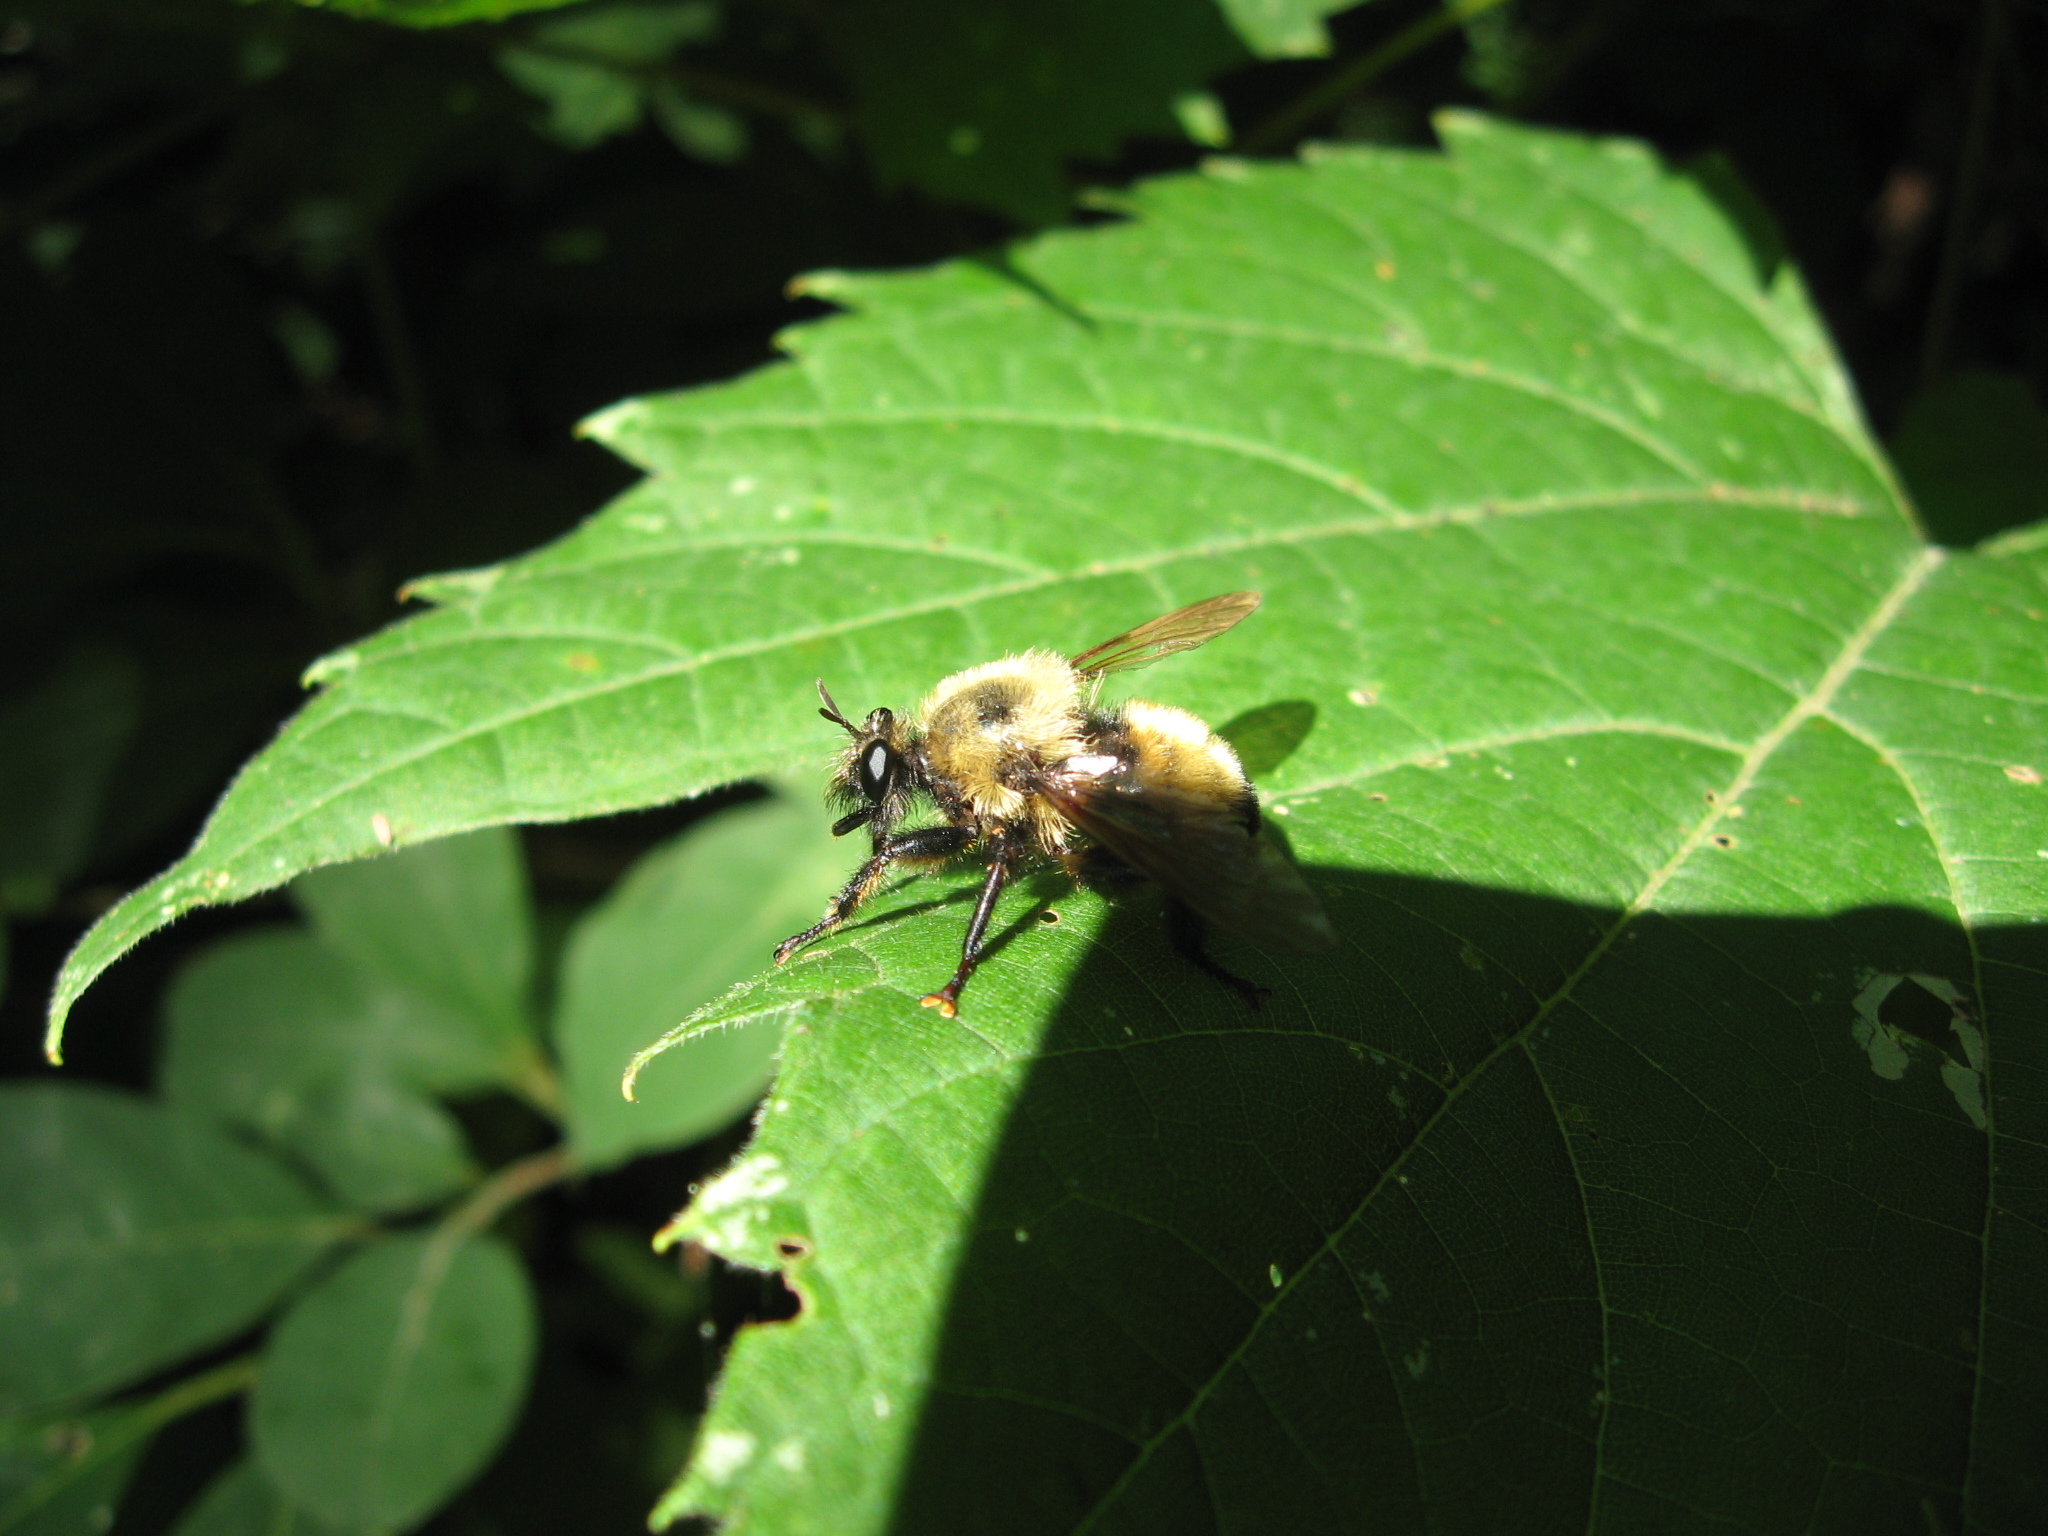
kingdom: Animalia
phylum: Arthropoda
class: Insecta
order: Diptera
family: Asilidae
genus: Laphria
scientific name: Laphria thoracica
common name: Bumble bee mimic robber fly
